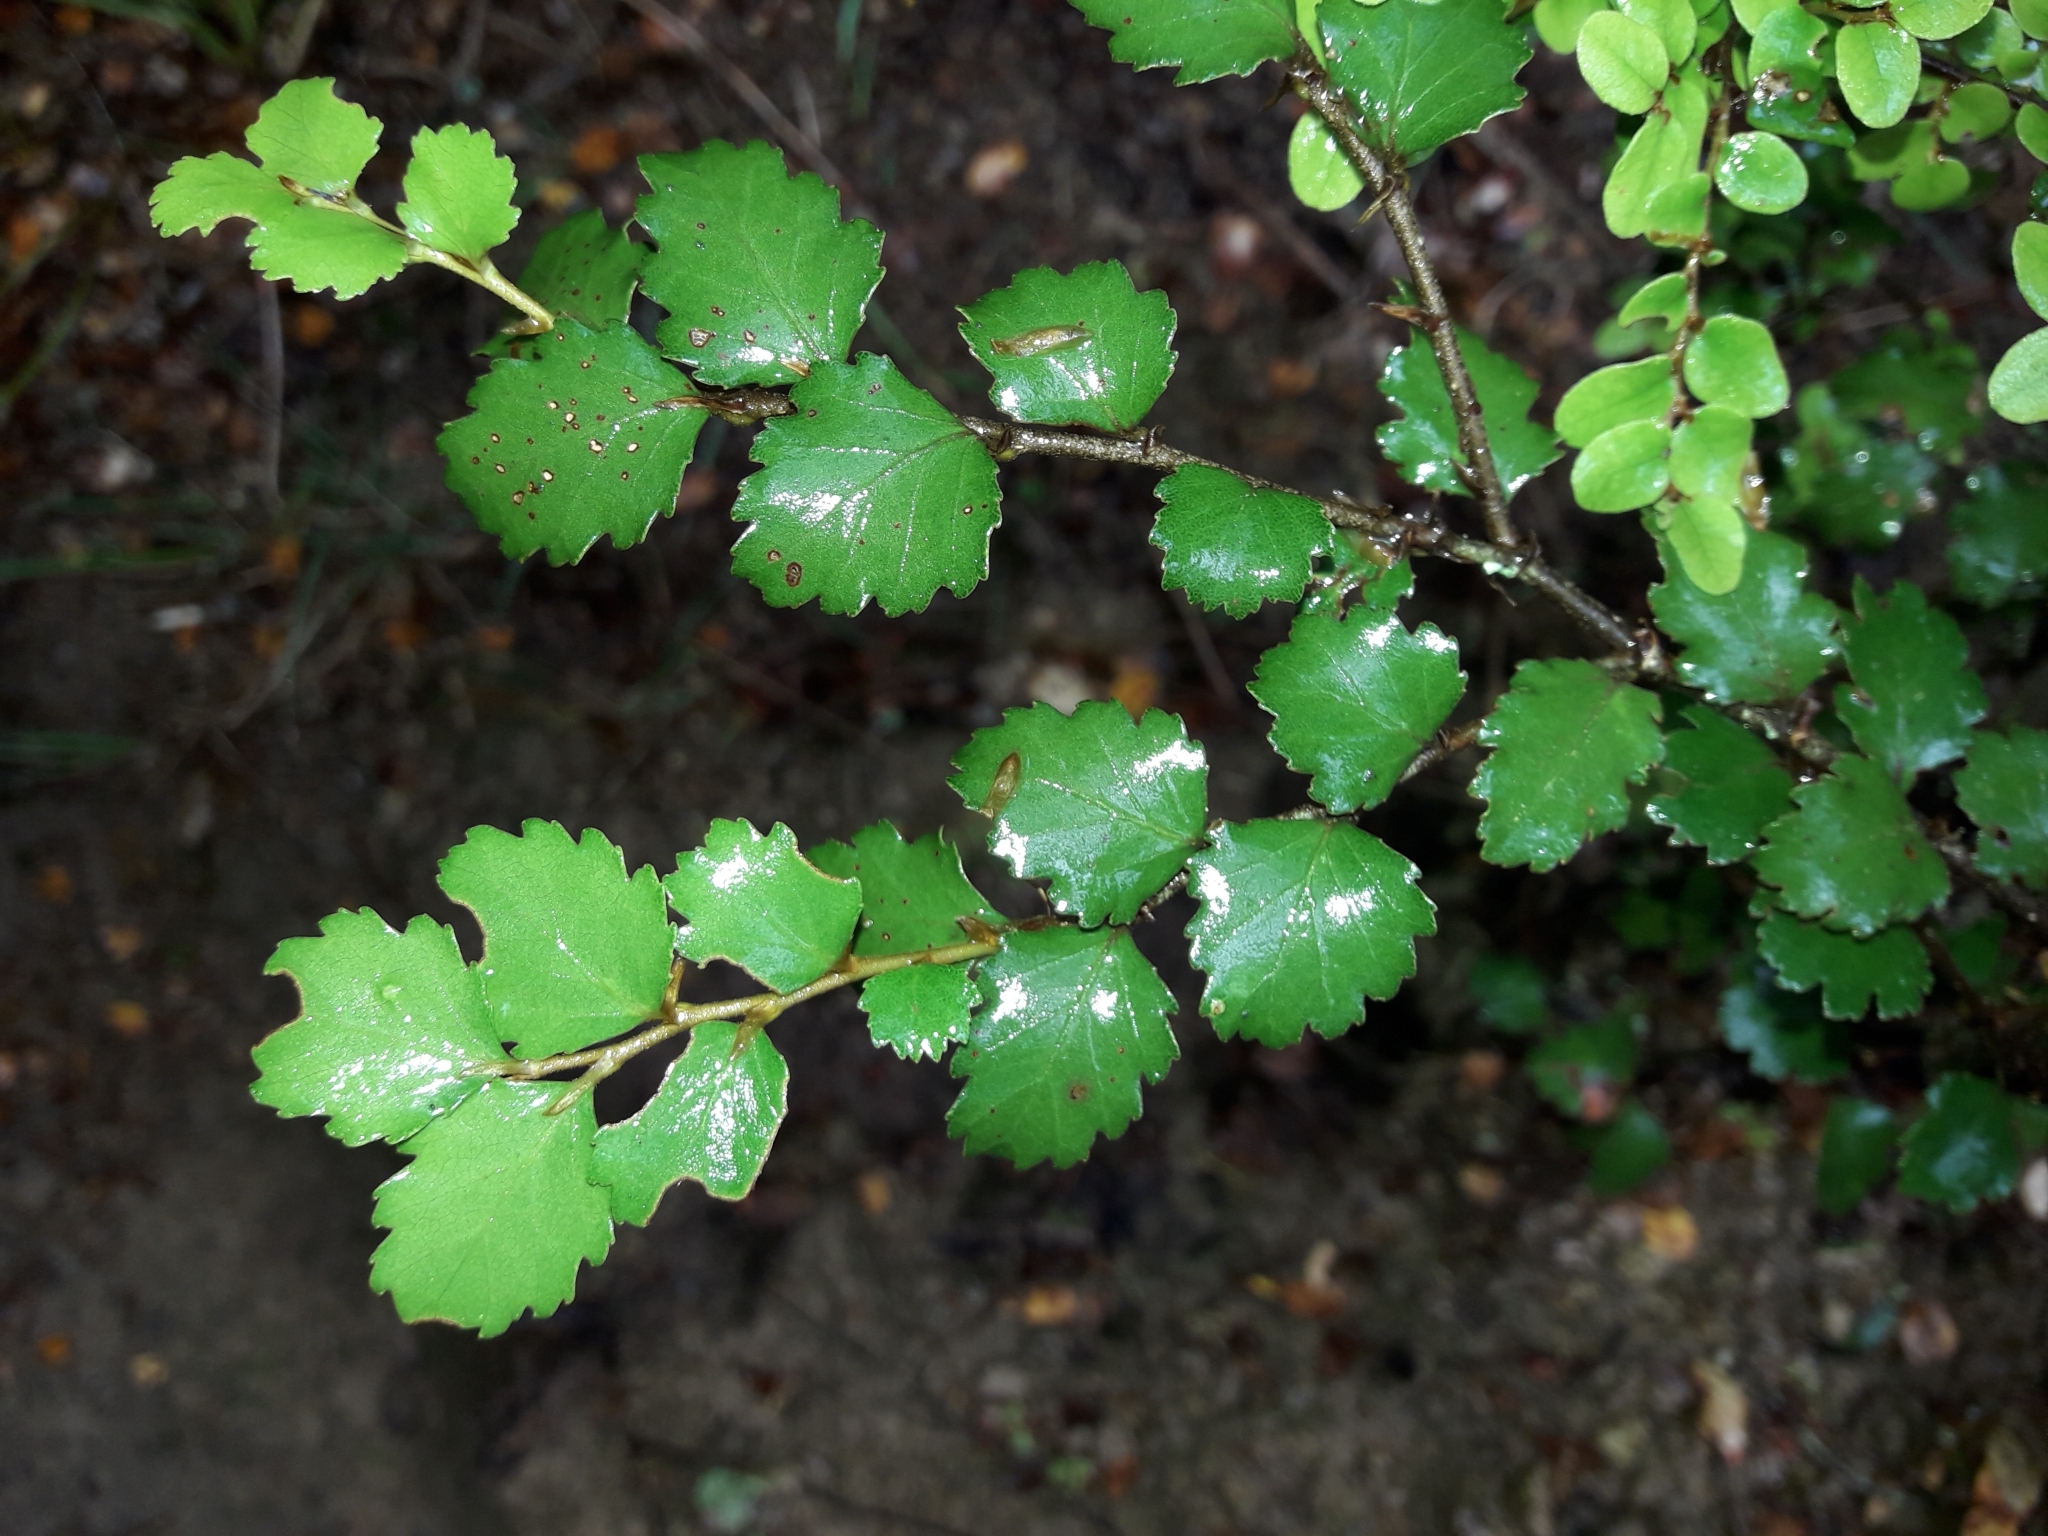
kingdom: Plantae
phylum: Tracheophyta
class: Magnoliopsida
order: Fagales
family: Nothofagaceae
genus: Nothofagus
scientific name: Nothofagus menziesii
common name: Silver beech
